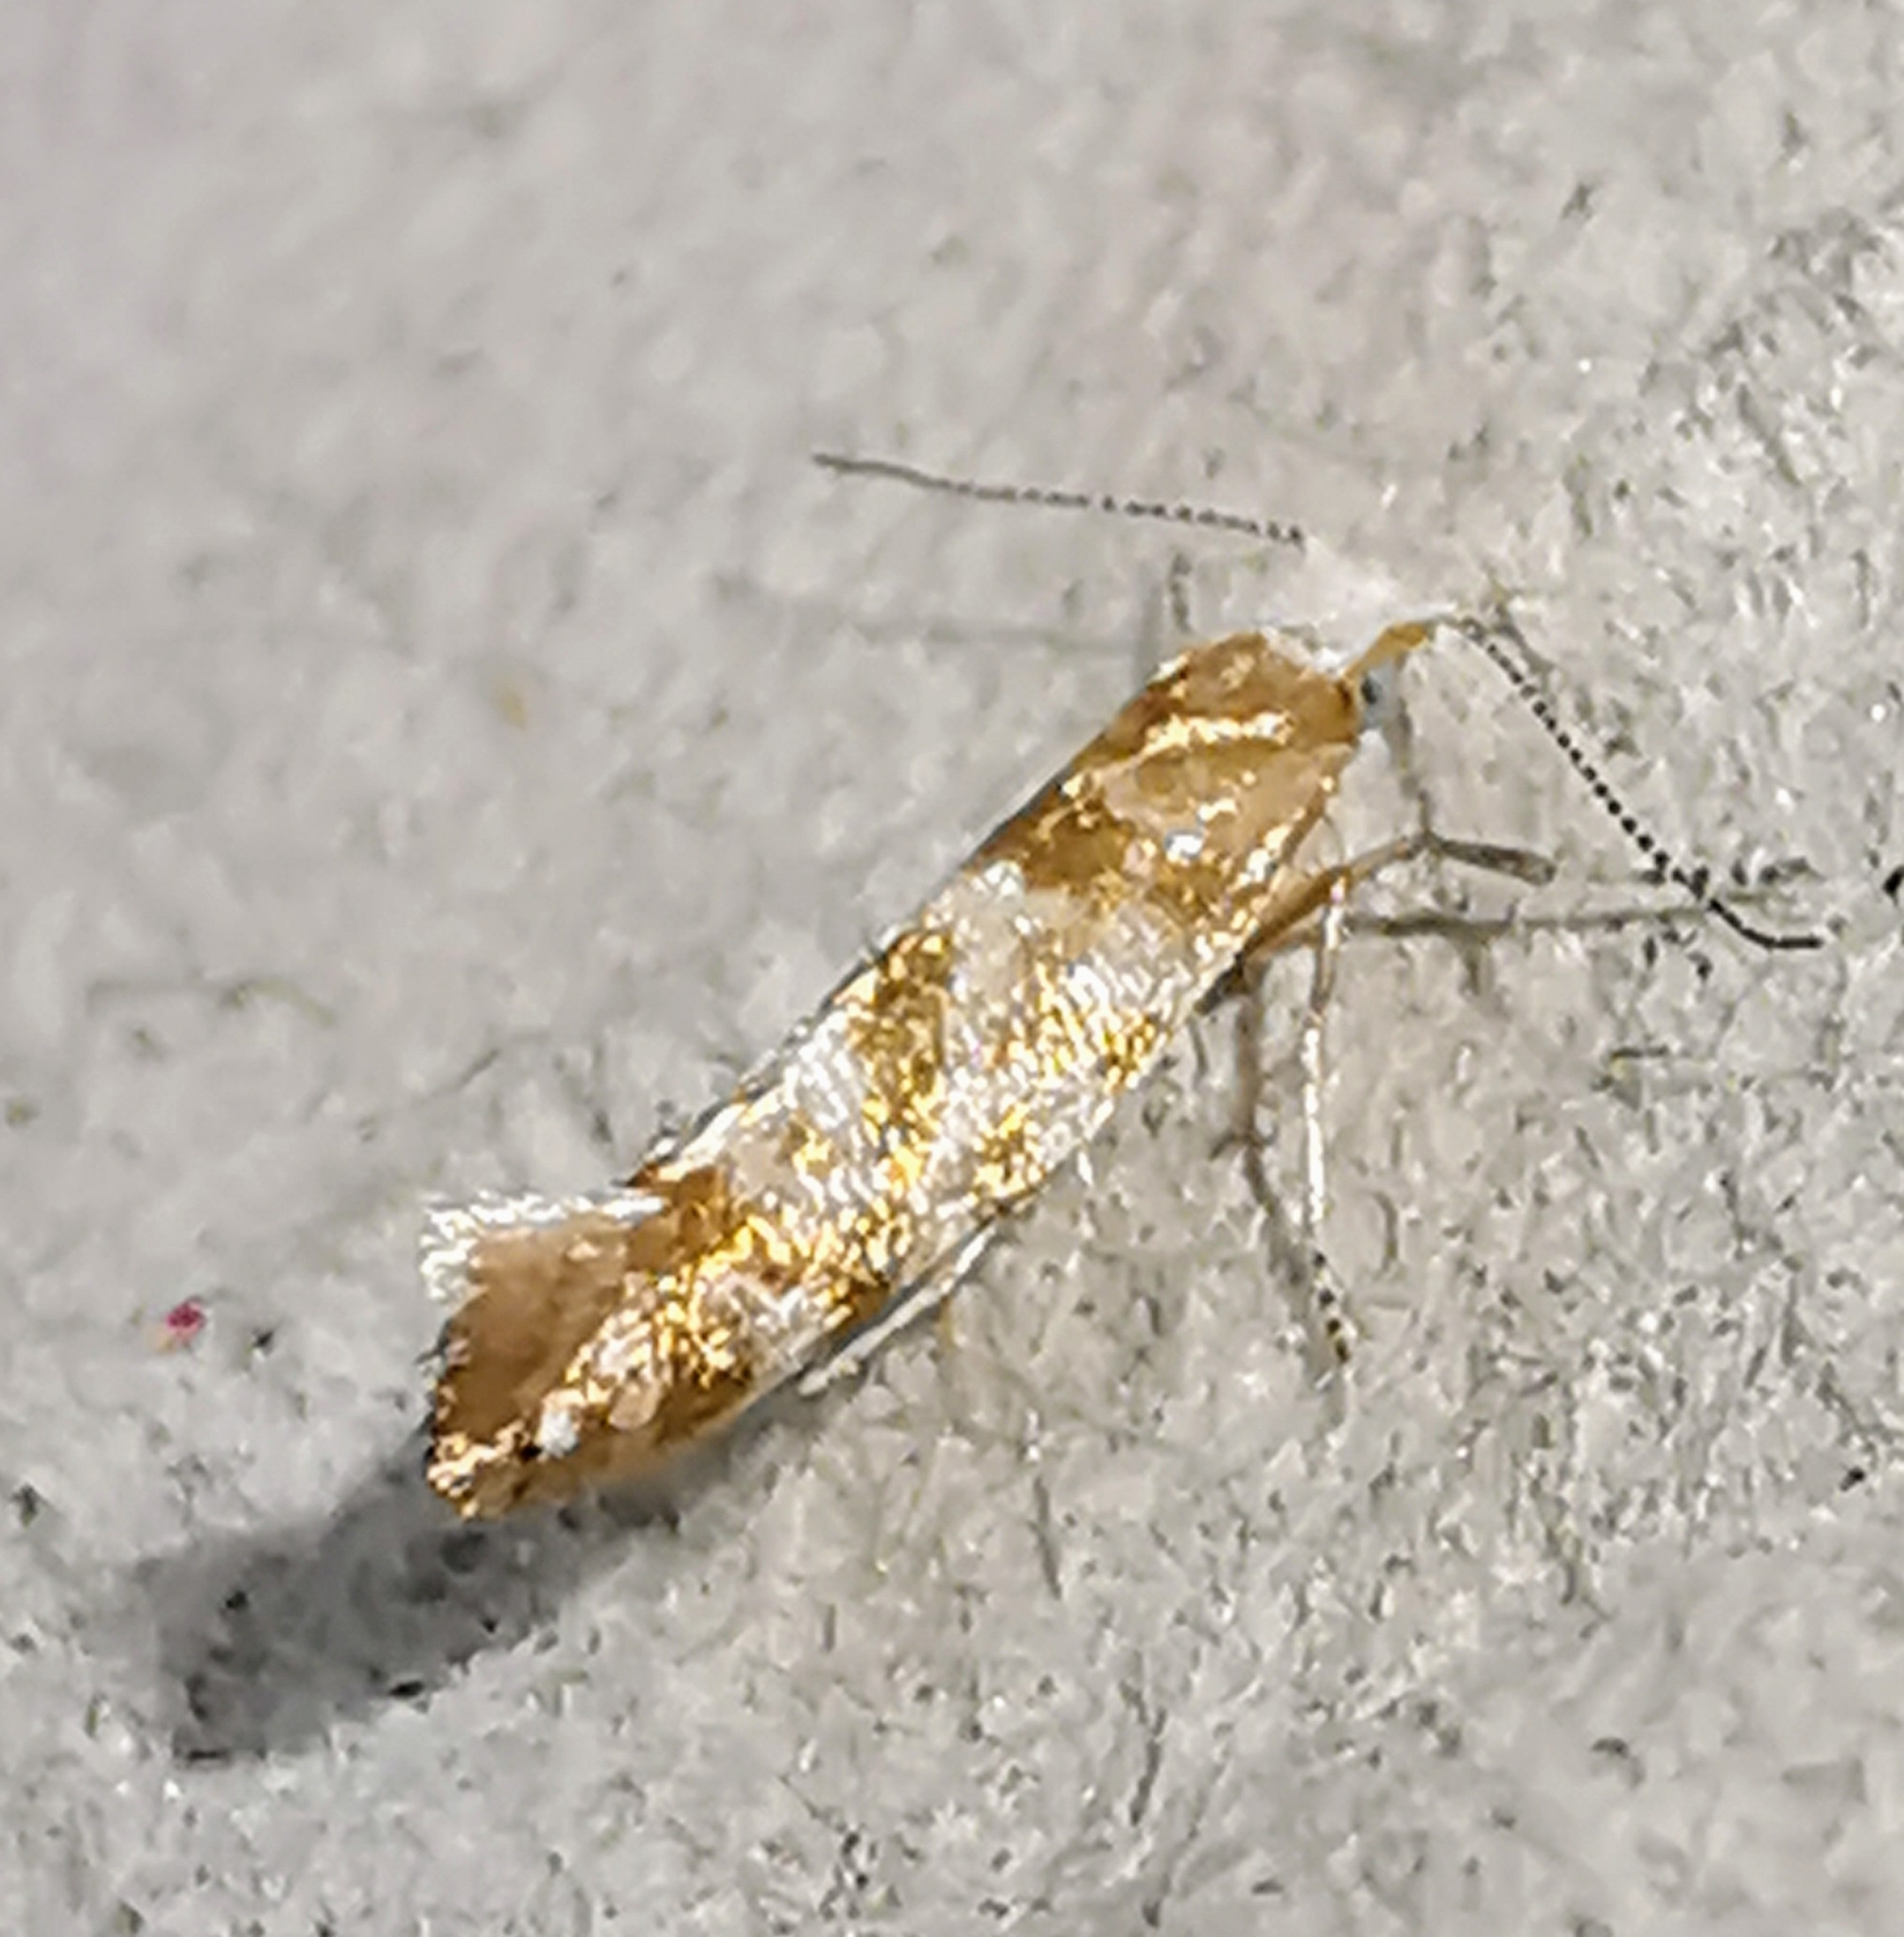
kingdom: Animalia
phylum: Arthropoda
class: Insecta
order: Lepidoptera
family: Argyresthiidae
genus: Argyresthia
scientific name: Argyresthia cupressella
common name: Cypress tip moth
